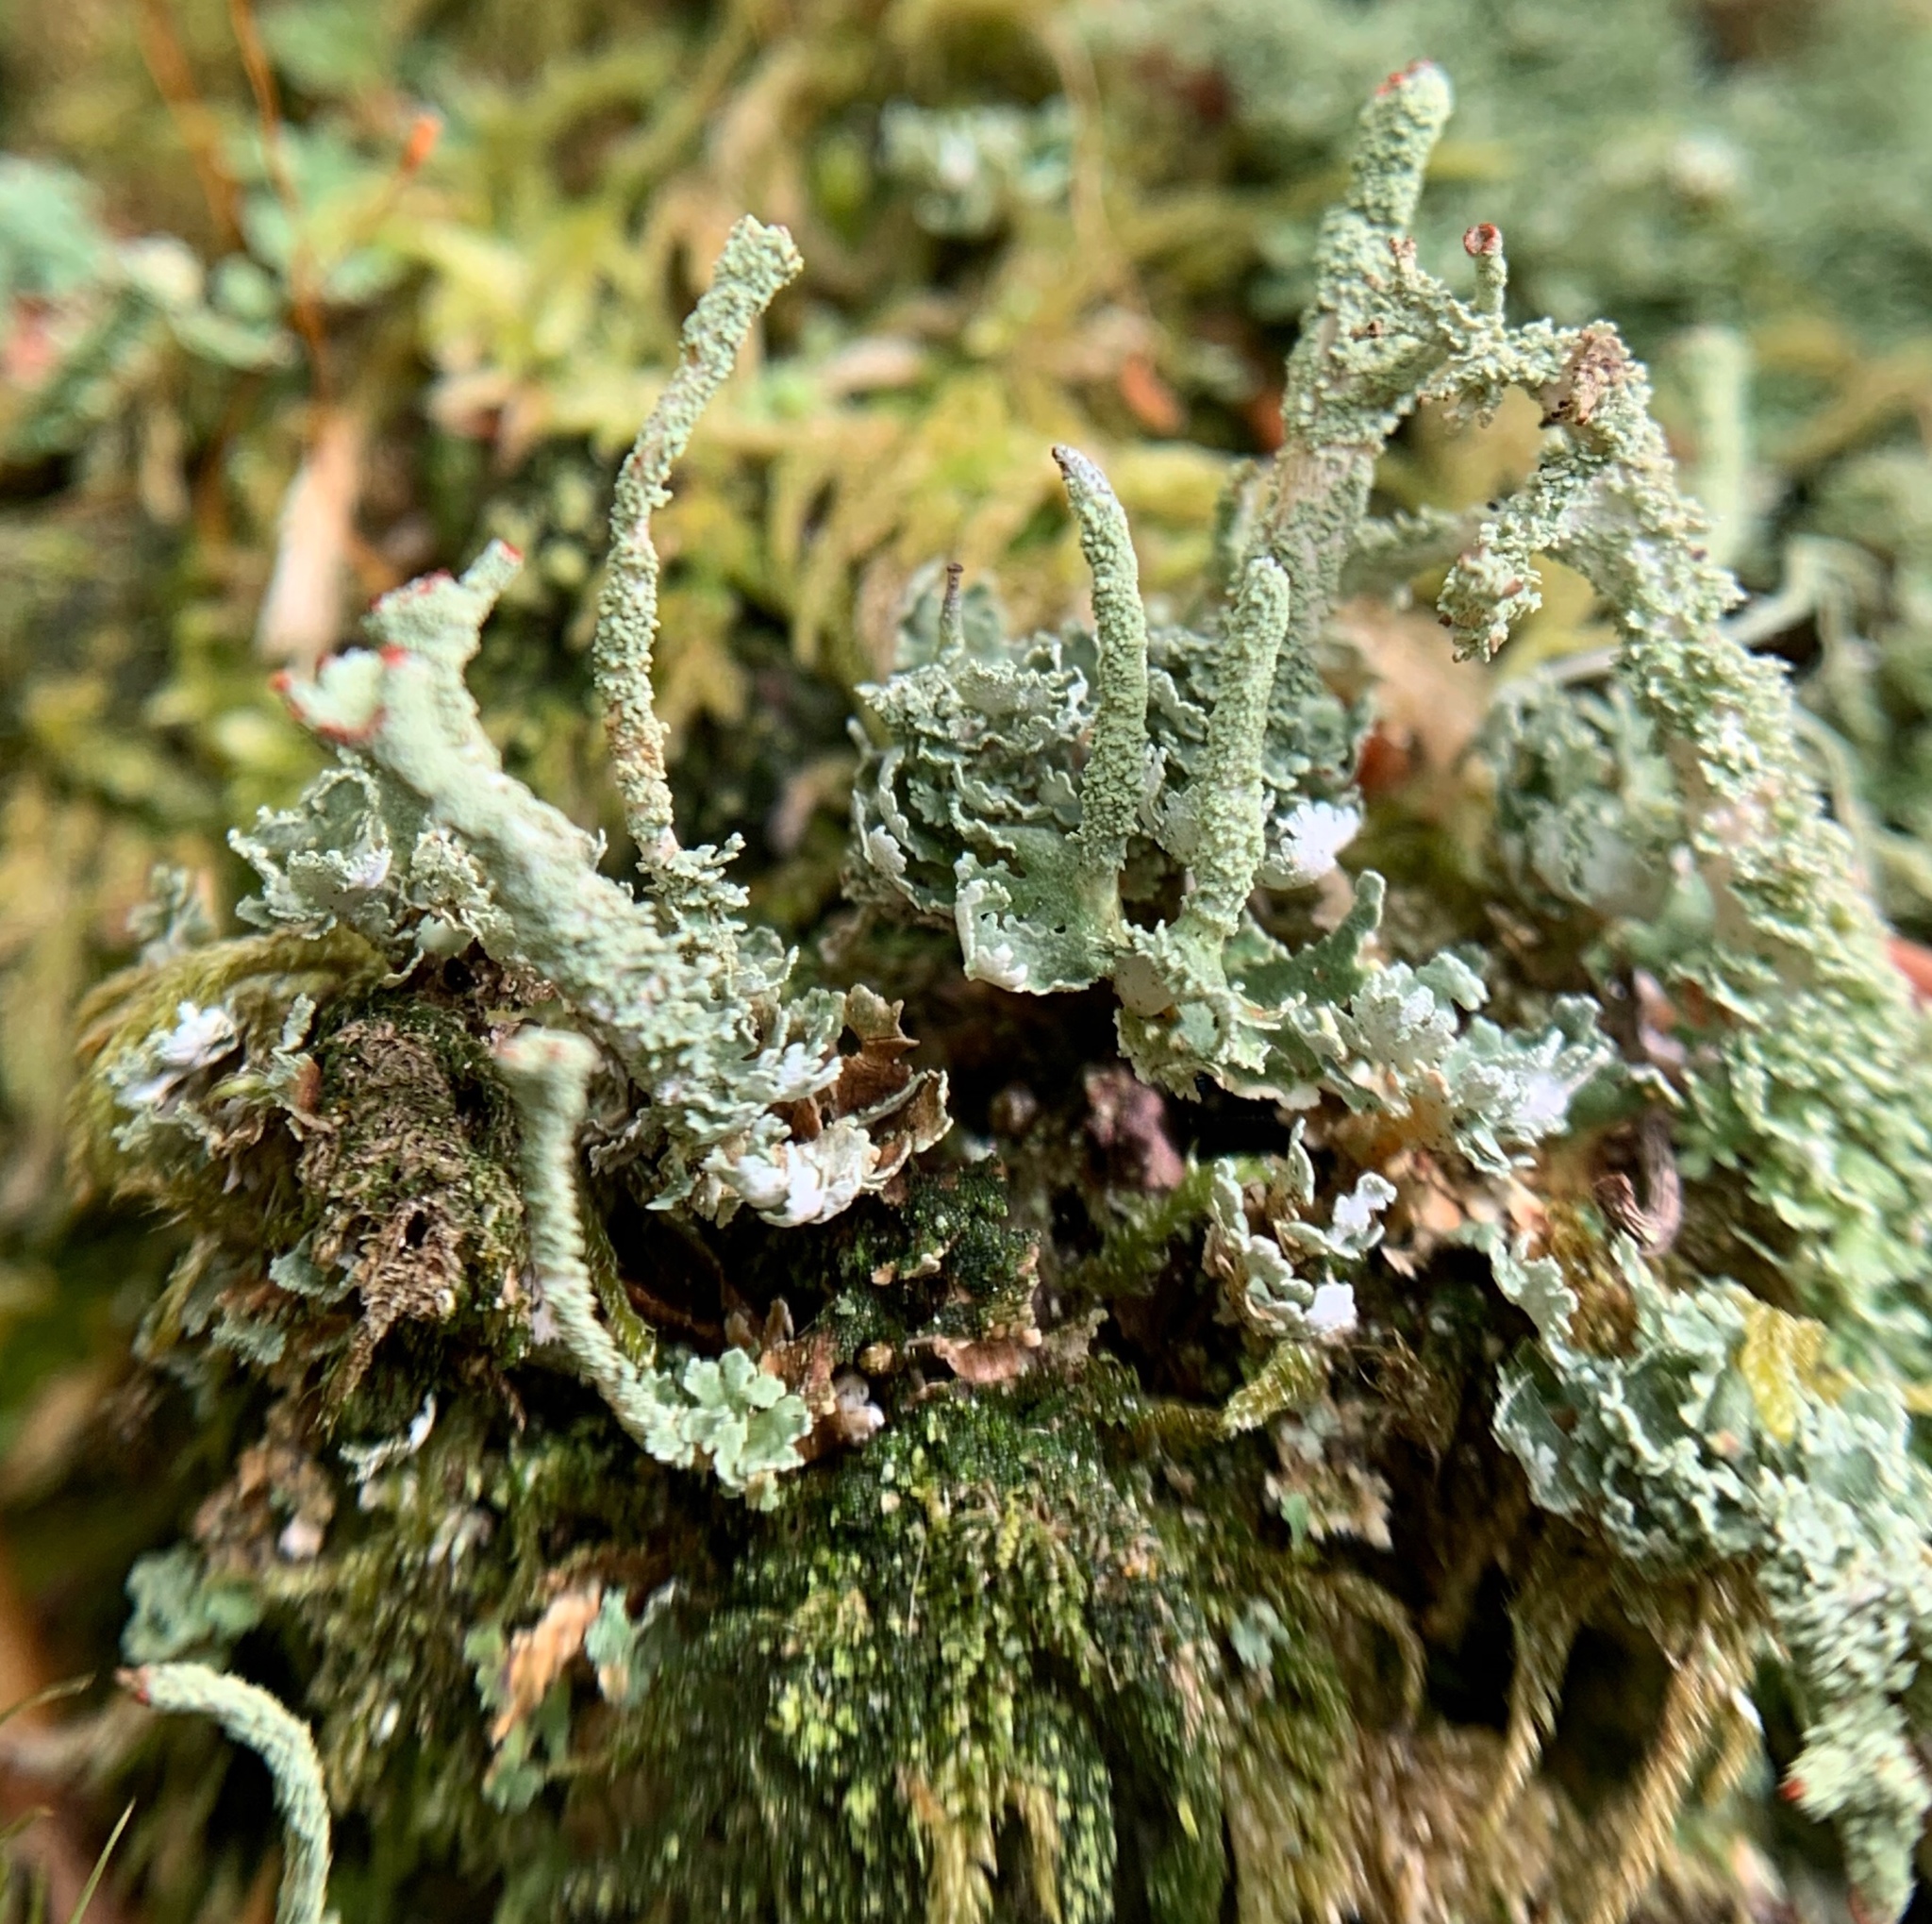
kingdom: Fungi
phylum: Ascomycota
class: Lecanoromycetes
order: Lecanorales
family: Cladoniaceae
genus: Cladonia
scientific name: Cladonia polydactyla
